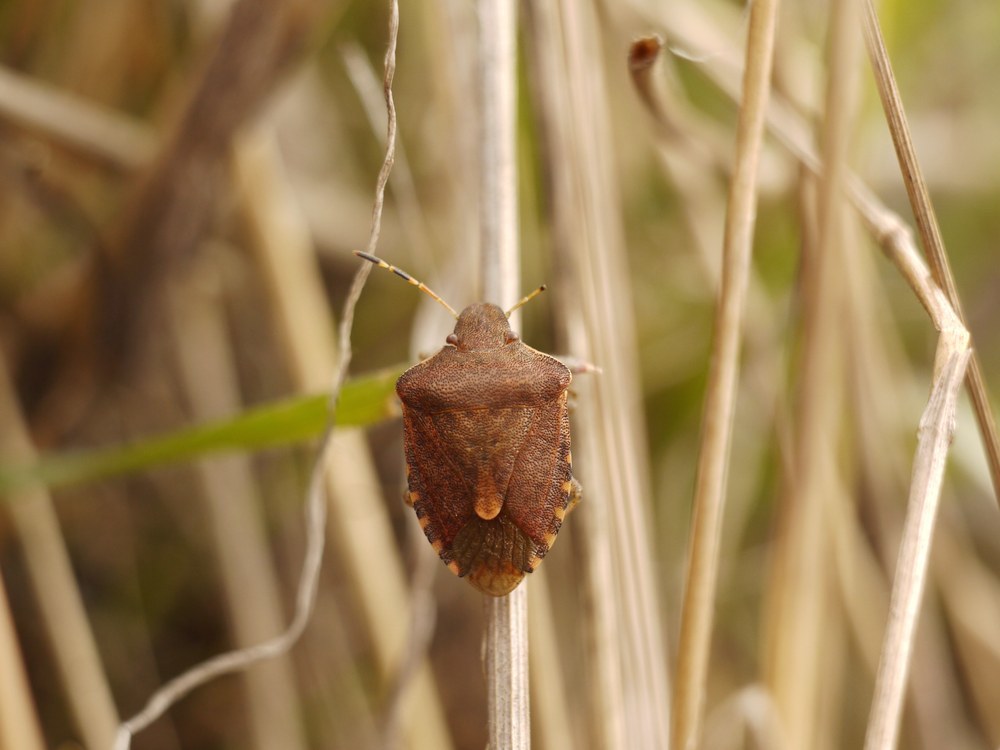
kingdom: Animalia
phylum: Arthropoda
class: Insecta
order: Hemiptera
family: Pentatomidae
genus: Holcostethus
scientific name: Holcostethus strictus
